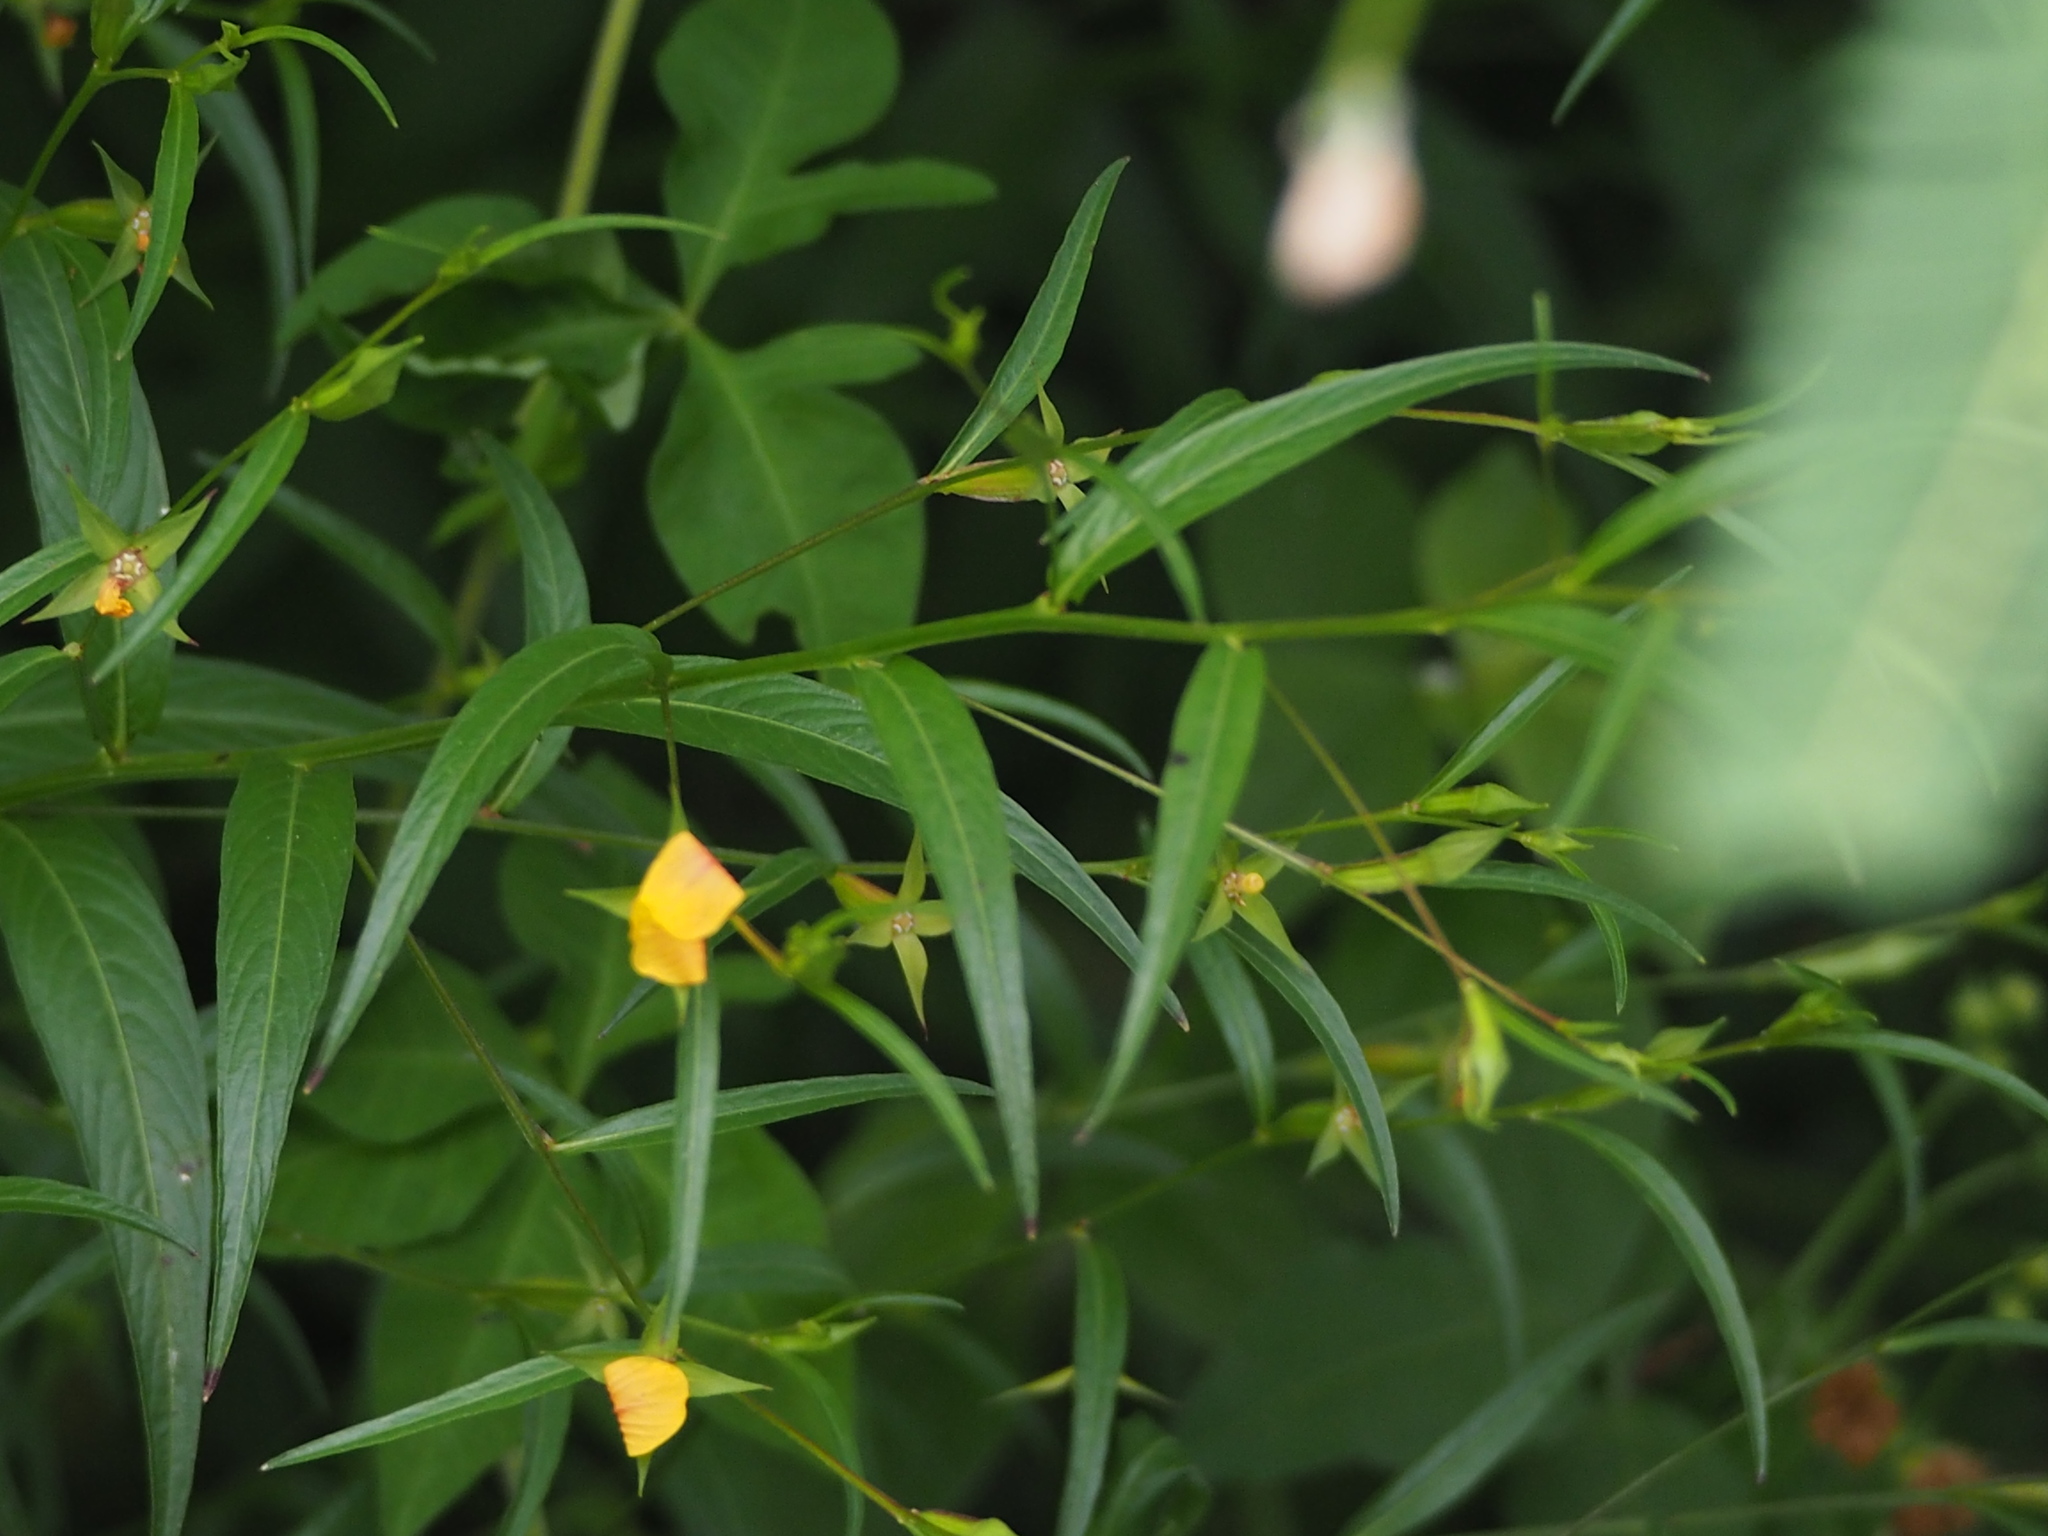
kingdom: Plantae
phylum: Tracheophyta
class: Magnoliopsida
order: Myrtales
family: Onagraceae
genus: Ludwigia
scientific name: Ludwigia decurrens
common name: Winged water-primrose
